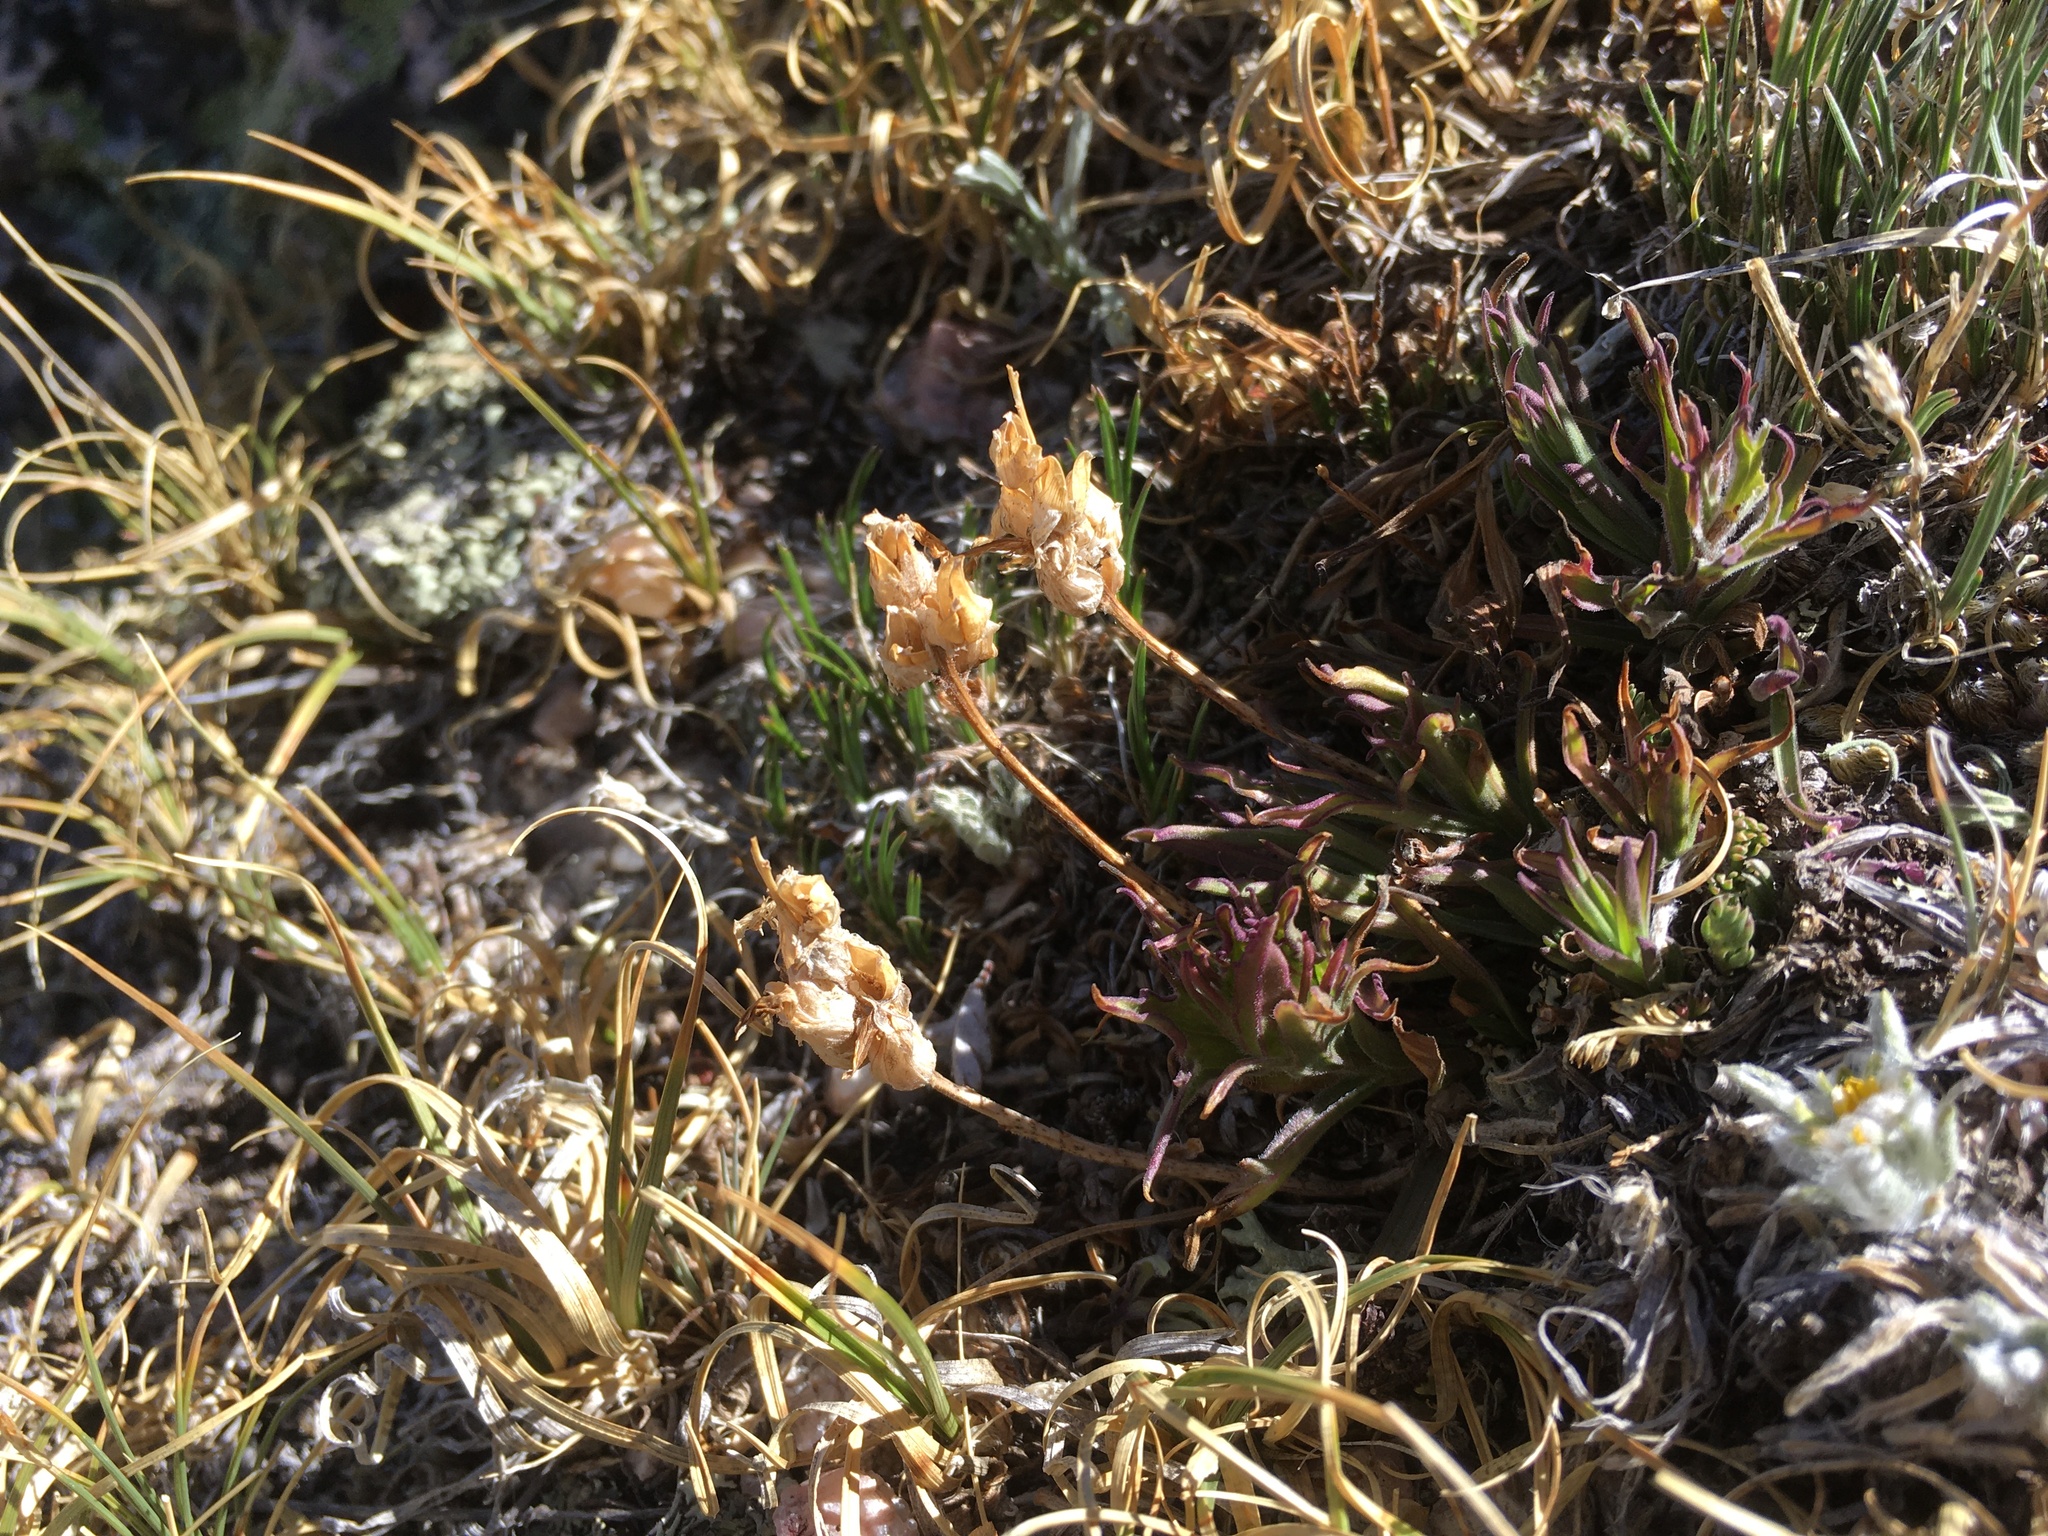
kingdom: Plantae
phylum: Tracheophyta
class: Magnoliopsida
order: Lamiales
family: Orobanchaceae
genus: Castilleja
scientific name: Castilleja haydenii
